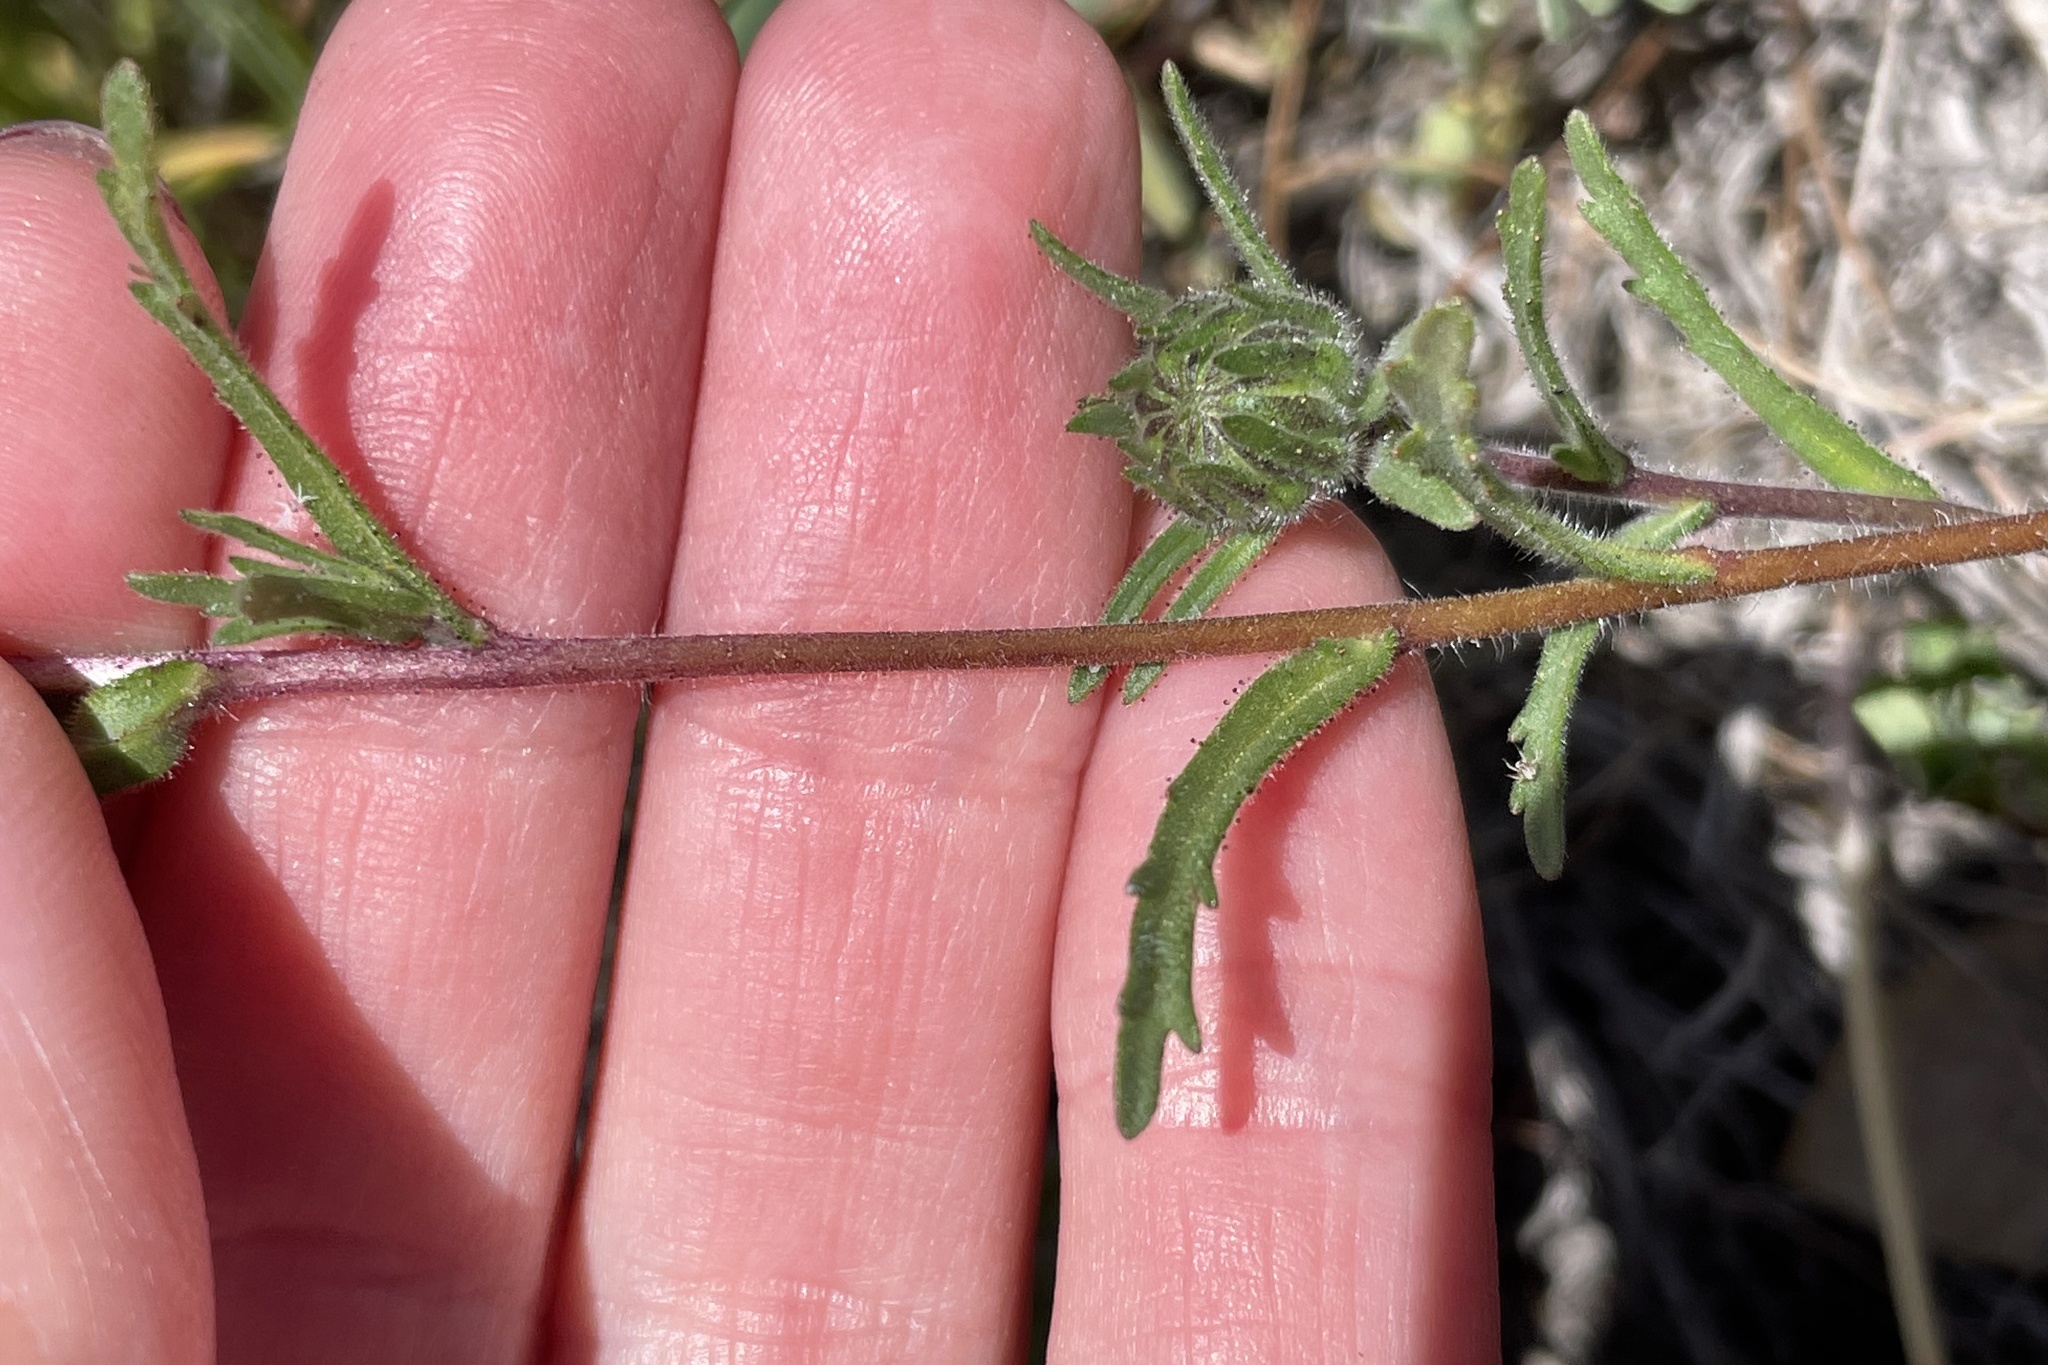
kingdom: Plantae
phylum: Tracheophyta
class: Magnoliopsida
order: Asterales
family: Asteraceae
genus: Layia
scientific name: Layia platyglossa
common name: Tidy-tips
